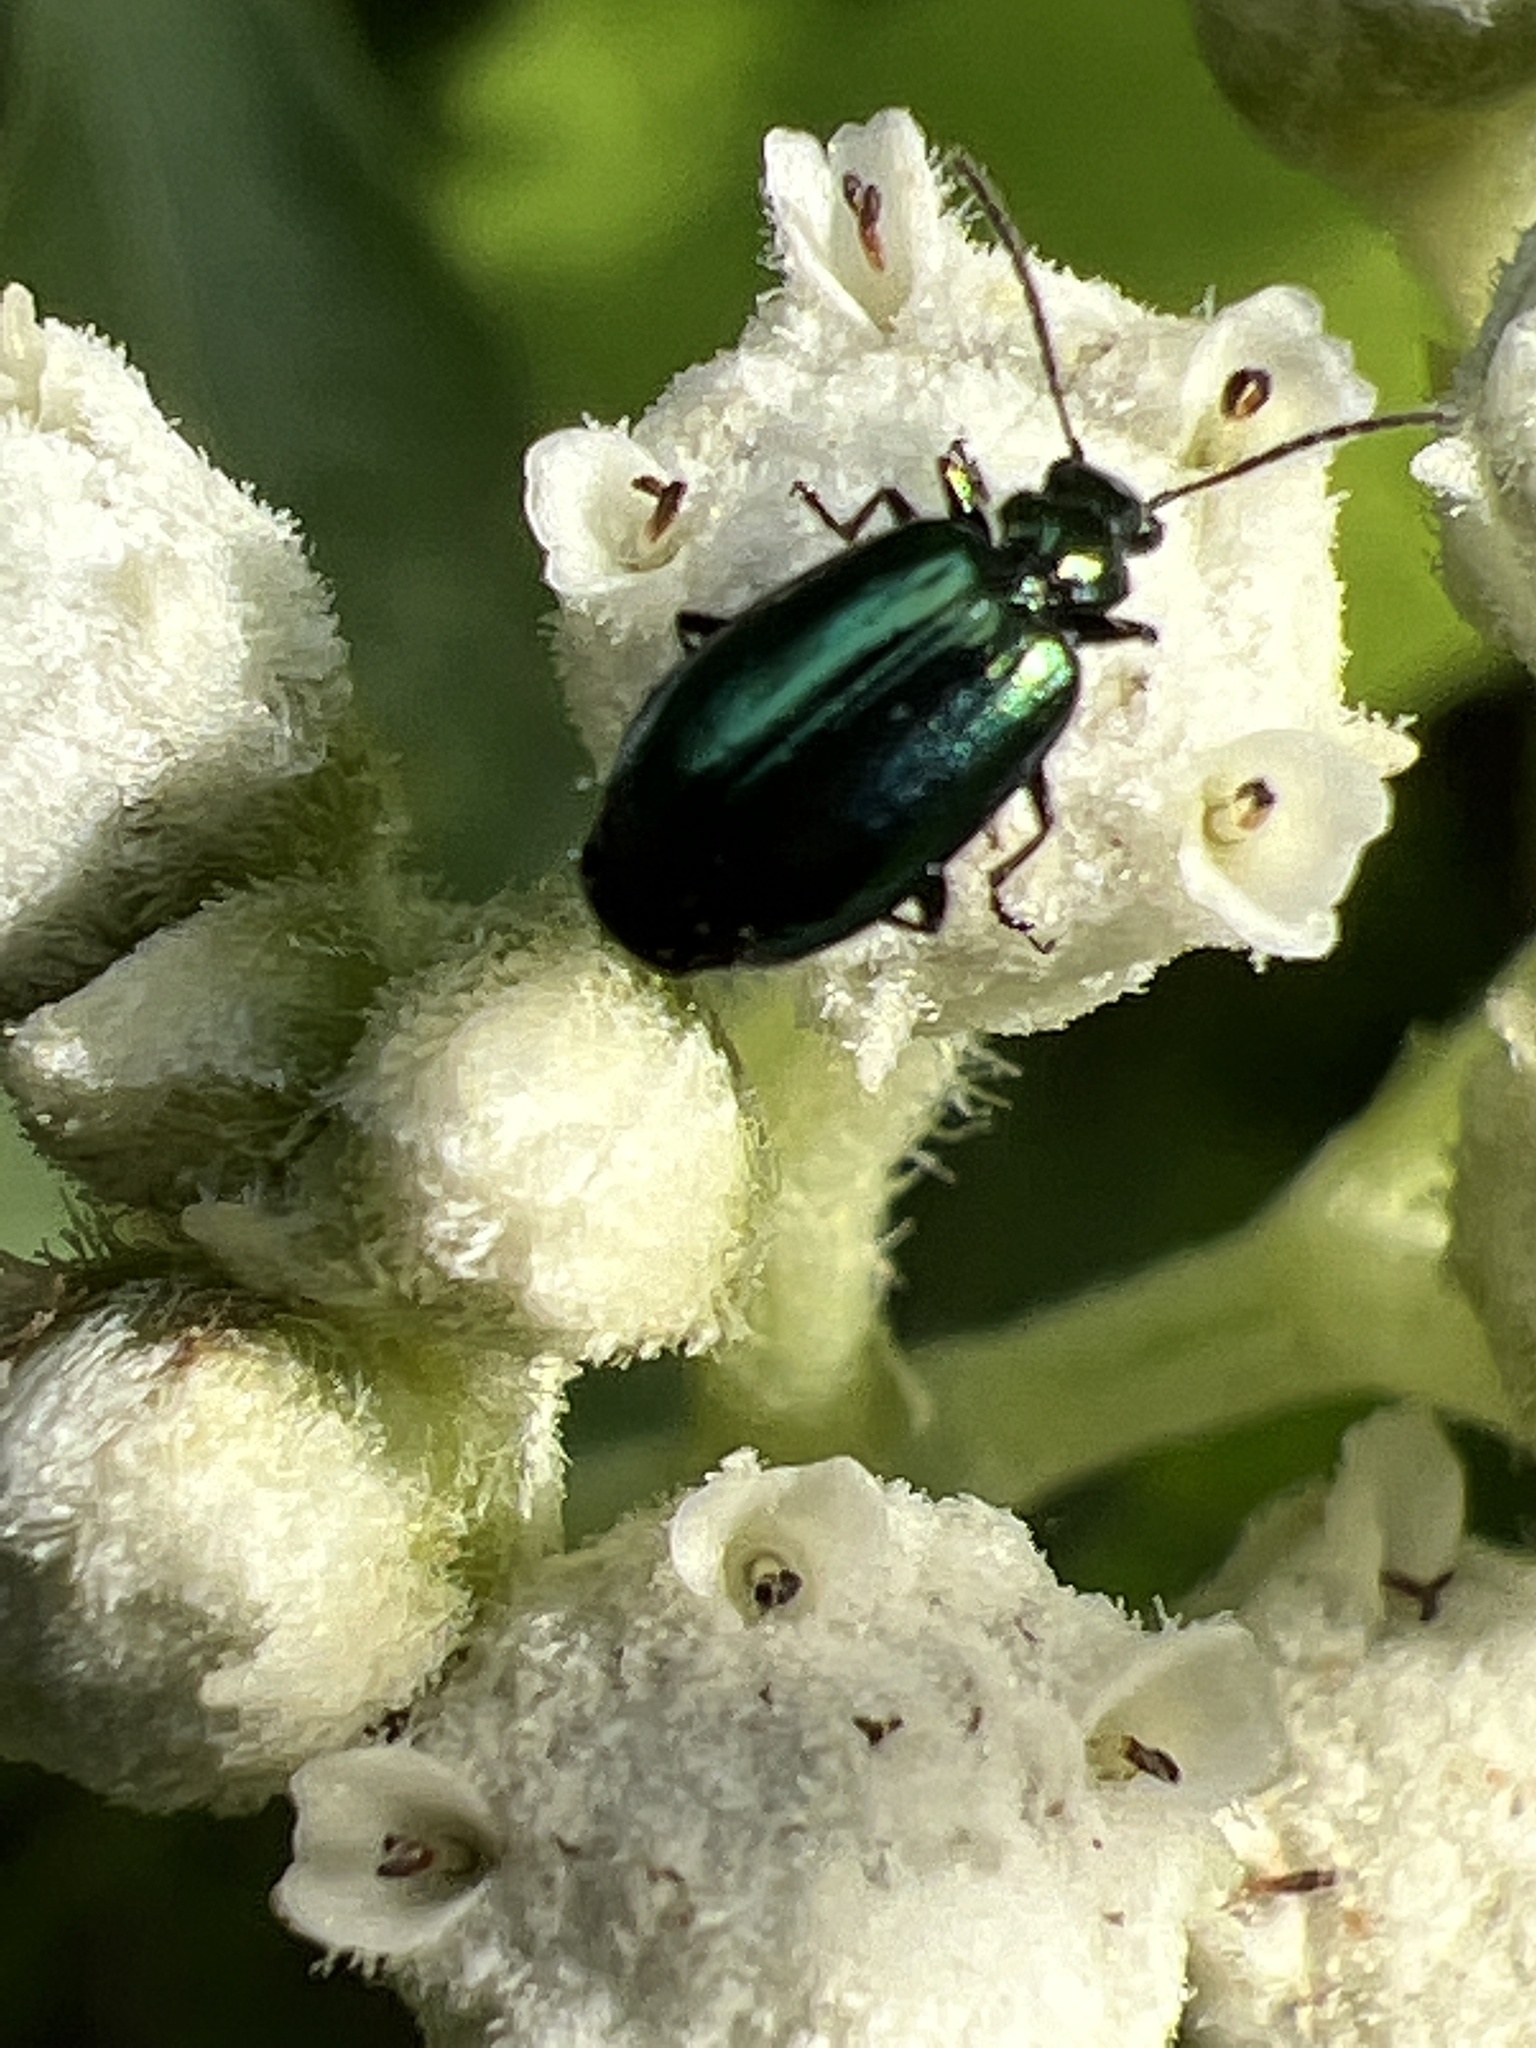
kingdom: Animalia
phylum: Arthropoda
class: Insecta
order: Coleoptera
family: Carabidae
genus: Lebia
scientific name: Lebia viridis
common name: Flower lebia beetle
